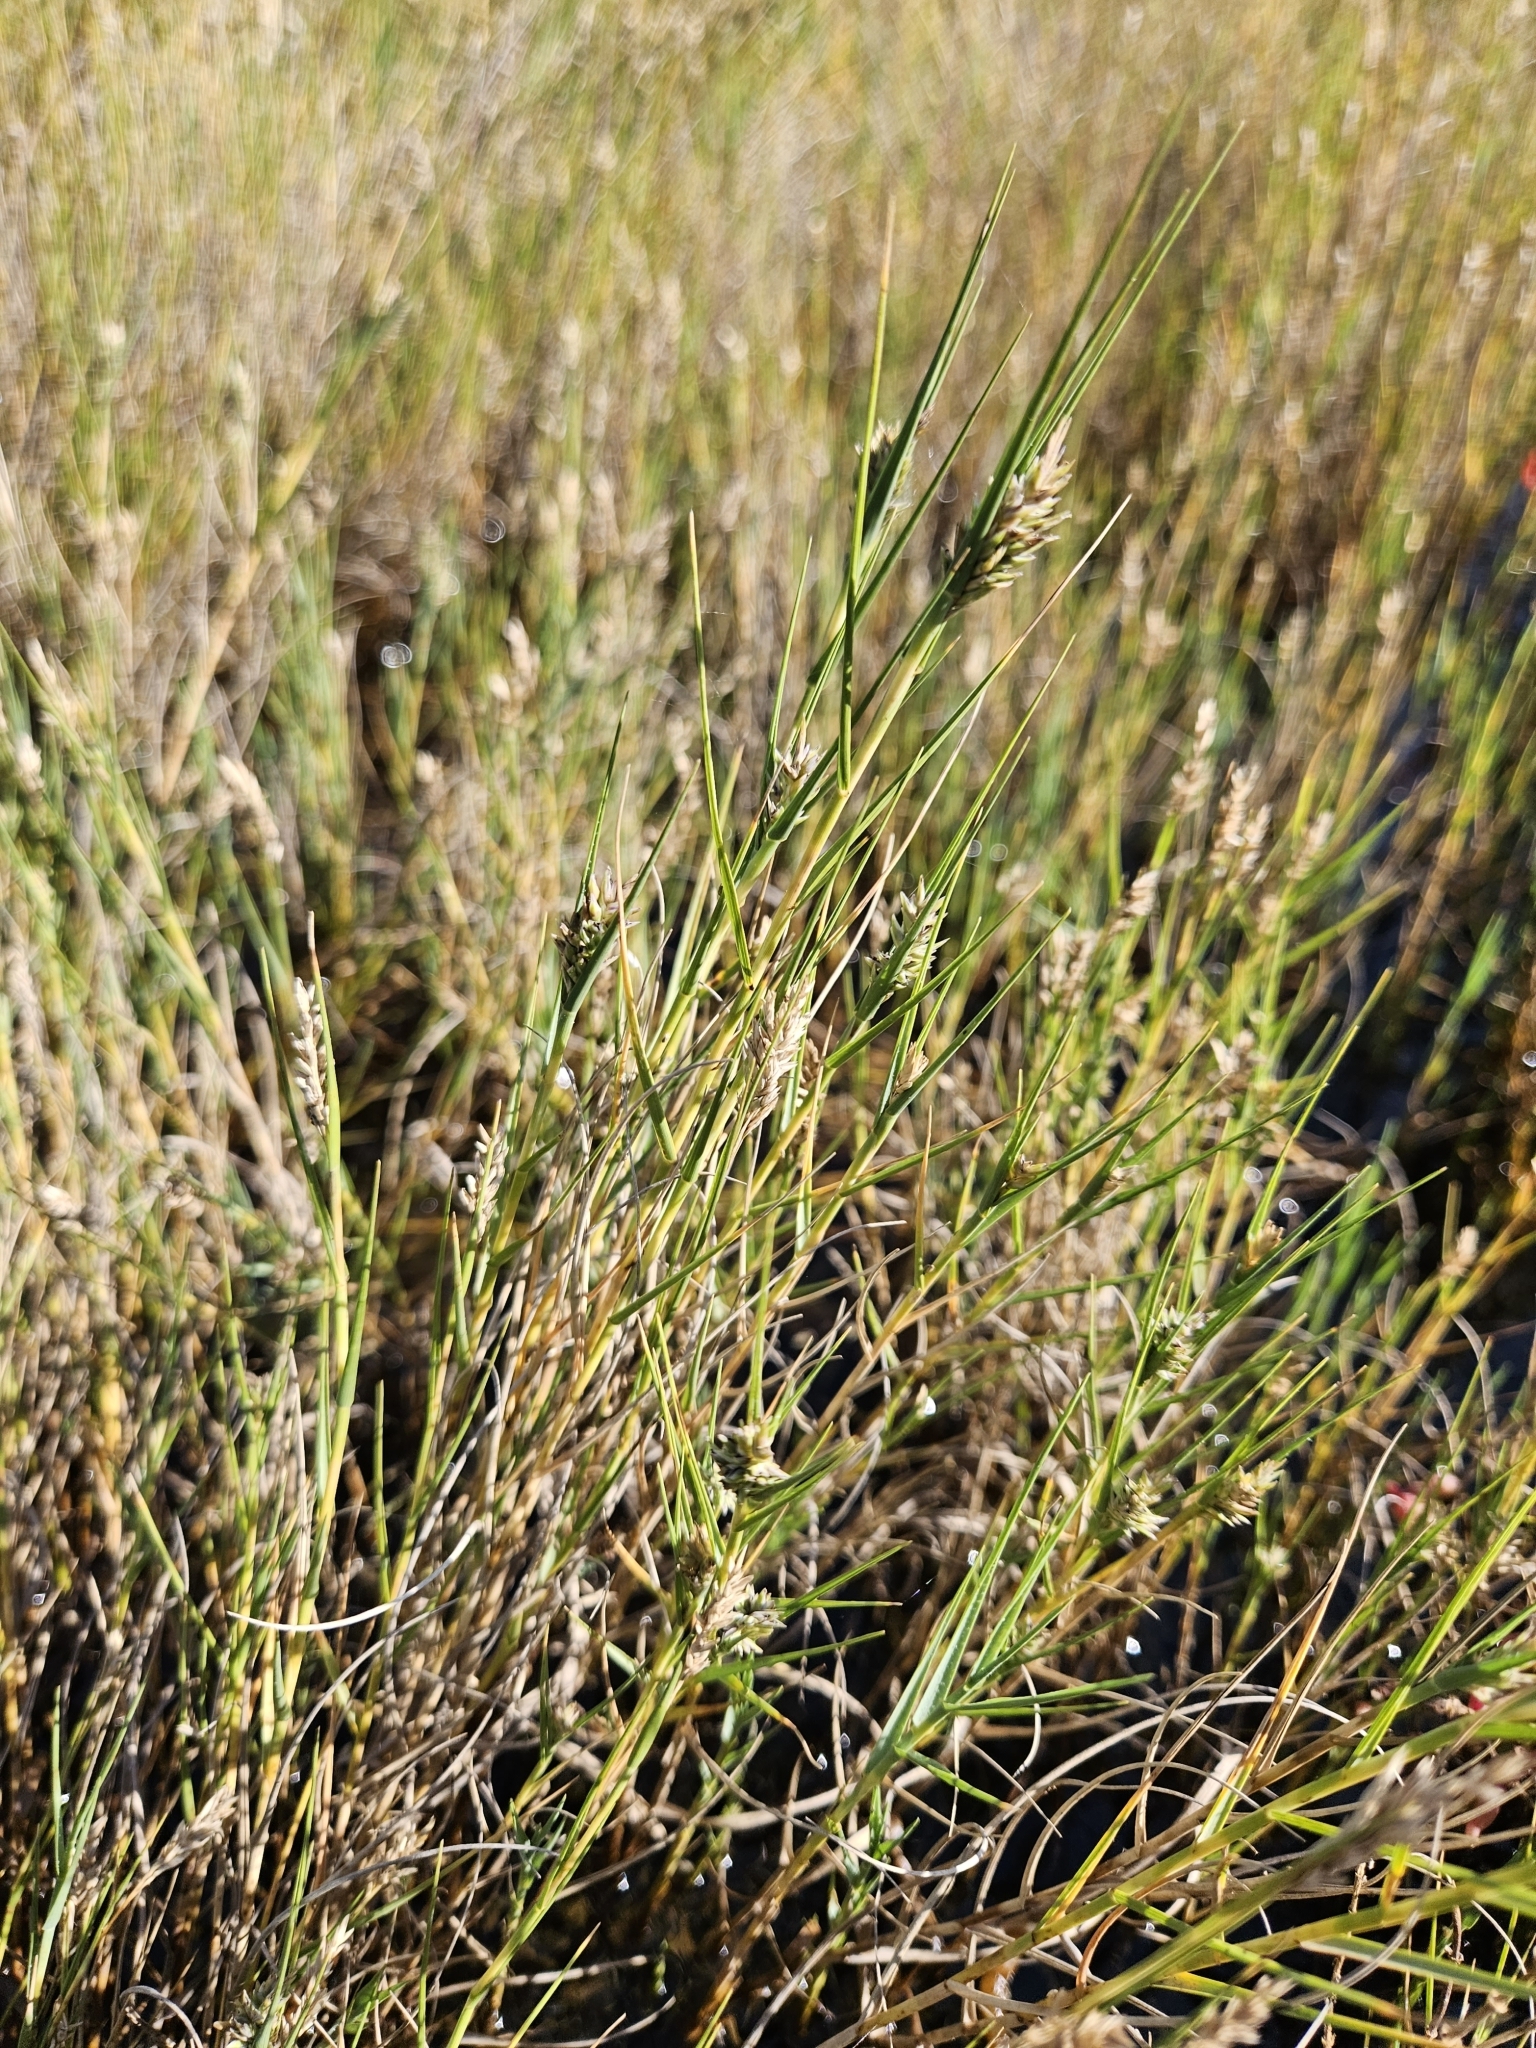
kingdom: Plantae
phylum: Tracheophyta
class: Liliopsida
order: Poales
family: Poaceae
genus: Distichlis
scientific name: Distichlis spicata
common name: Saltgrass
